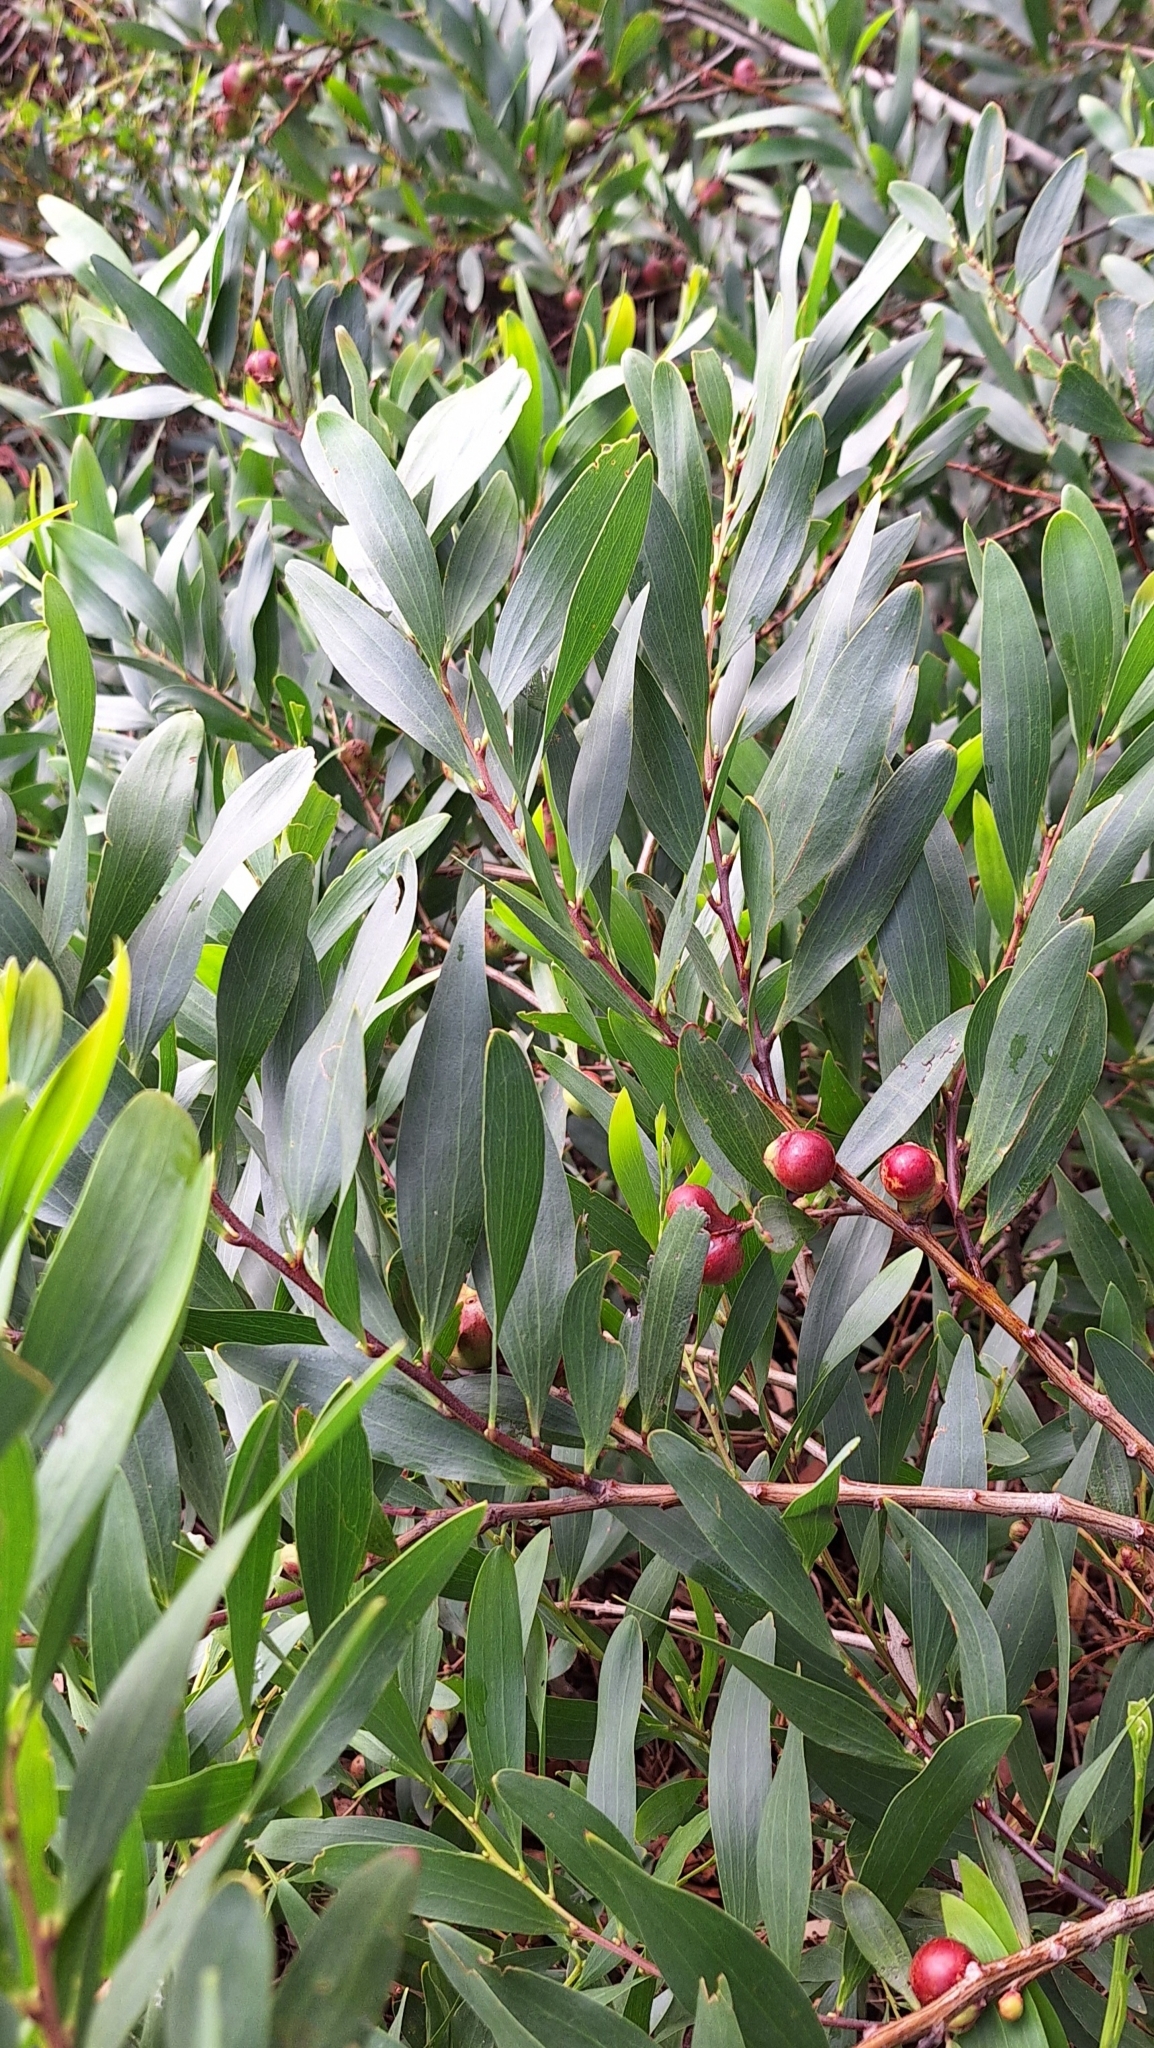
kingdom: Plantae
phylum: Tracheophyta
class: Magnoliopsida
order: Fabales
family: Fabaceae
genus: Acacia
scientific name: Acacia longifolia
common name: Sydney golden wattle
